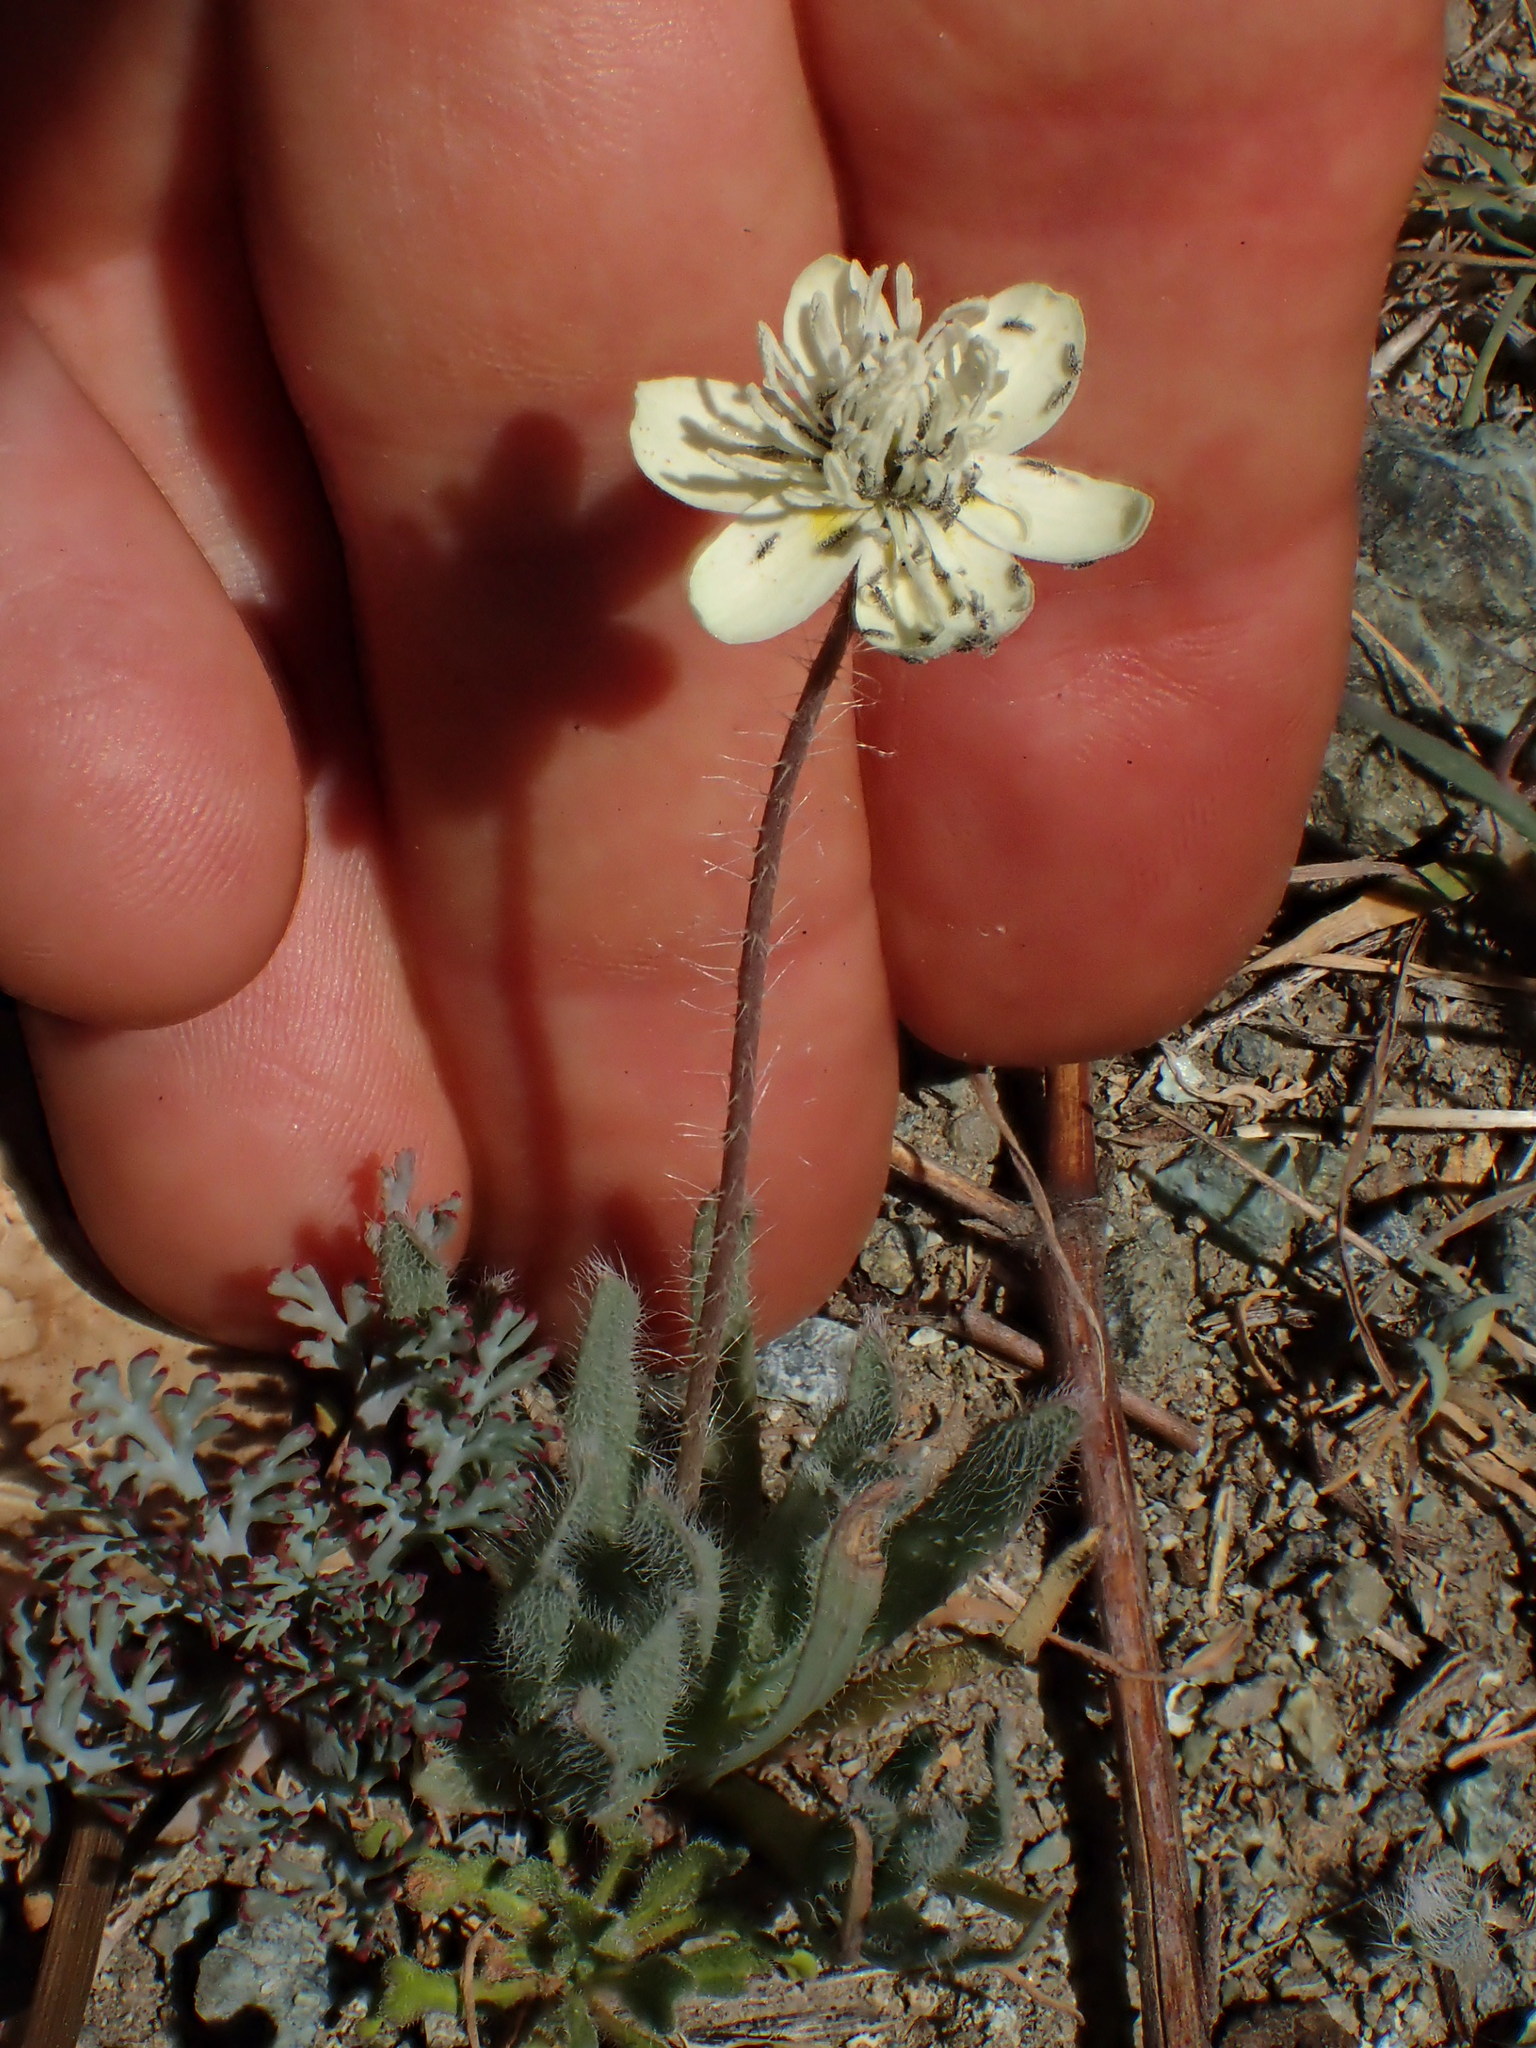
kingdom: Plantae
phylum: Tracheophyta
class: Magnoliopsida
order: Ranunculales
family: Papaveraceae
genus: Platystemon
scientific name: Platystemon californicus
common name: Cream-cups
